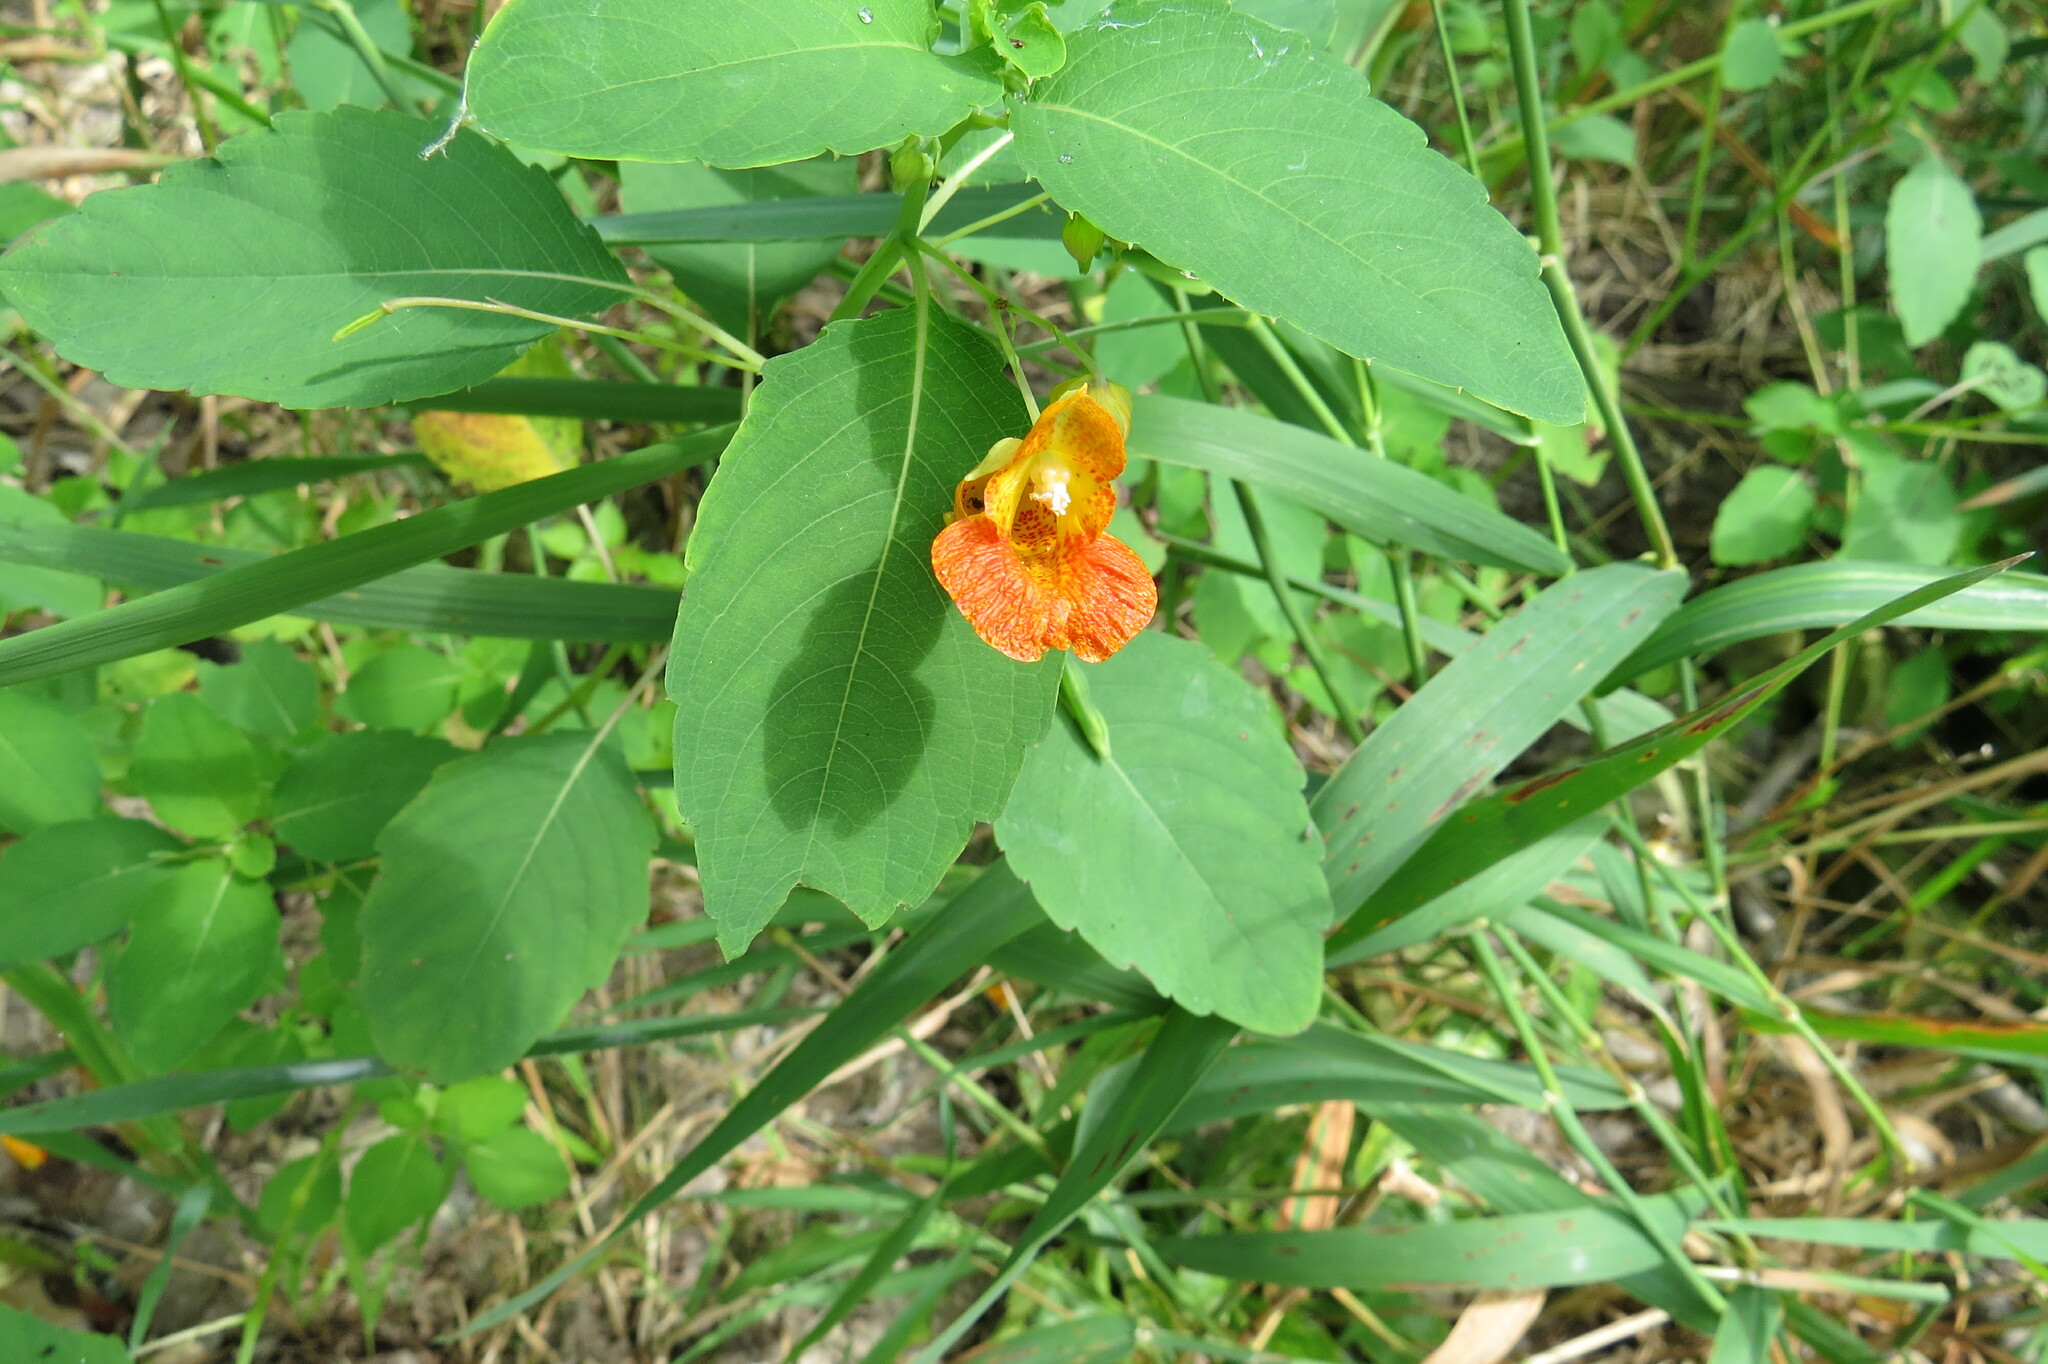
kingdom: Plantae
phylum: Tracheophyta
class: Magnoliopsida
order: Ericales
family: Balsaminaceae
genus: Impatiens
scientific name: Impatiens capensis
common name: Orange balsam
